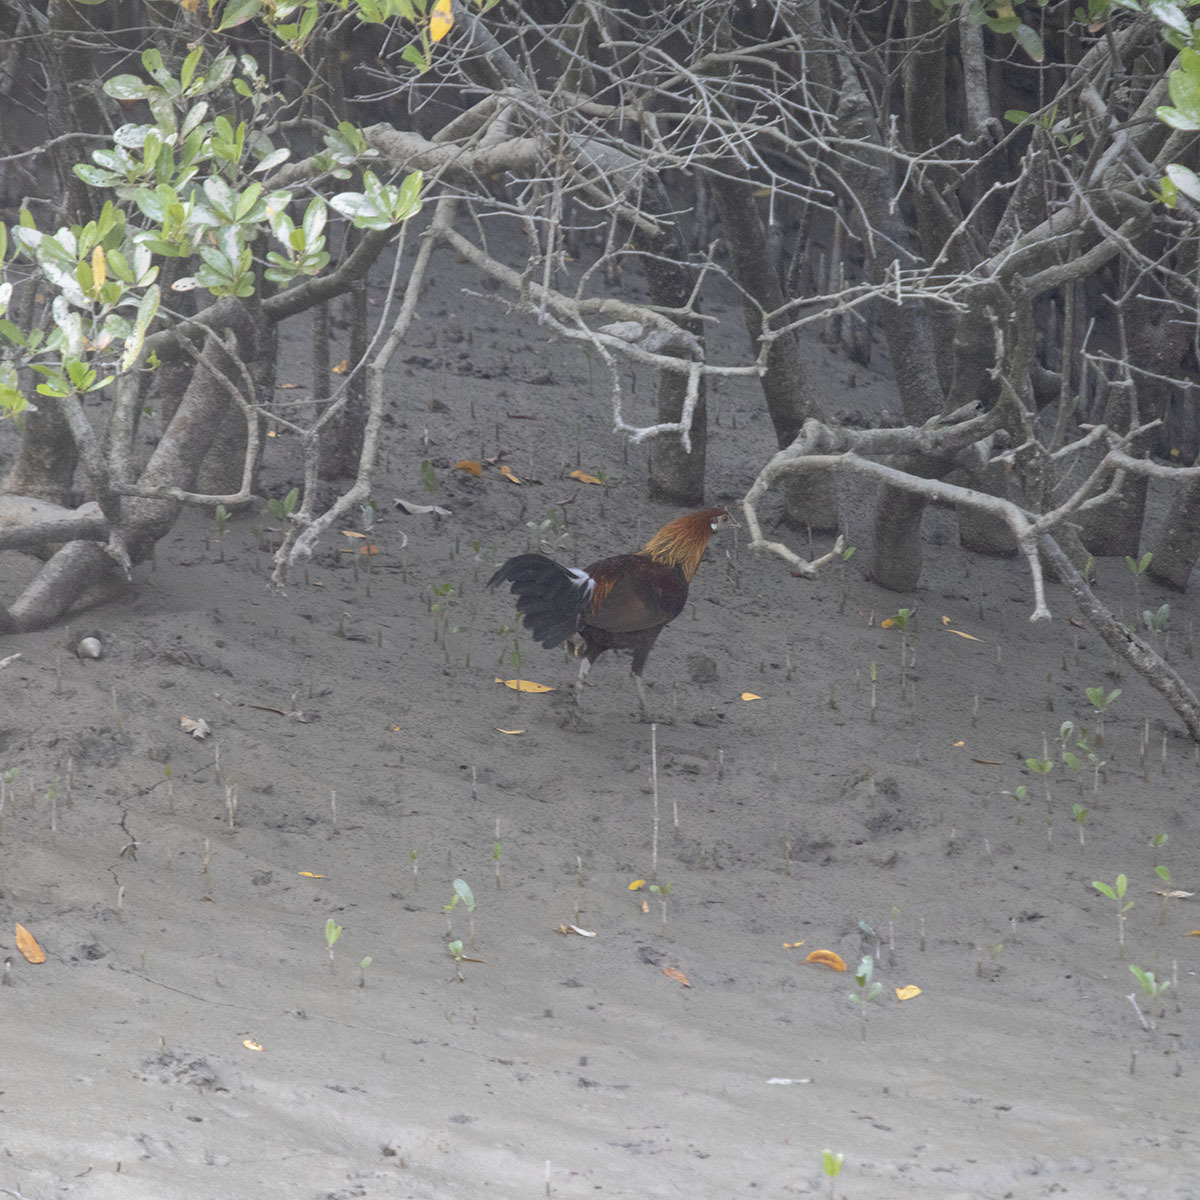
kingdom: Animalia
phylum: Chordata
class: Aves
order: Galliformes
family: Phasianidae
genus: Gallus
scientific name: Gallus gallus
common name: Red junglefowl
